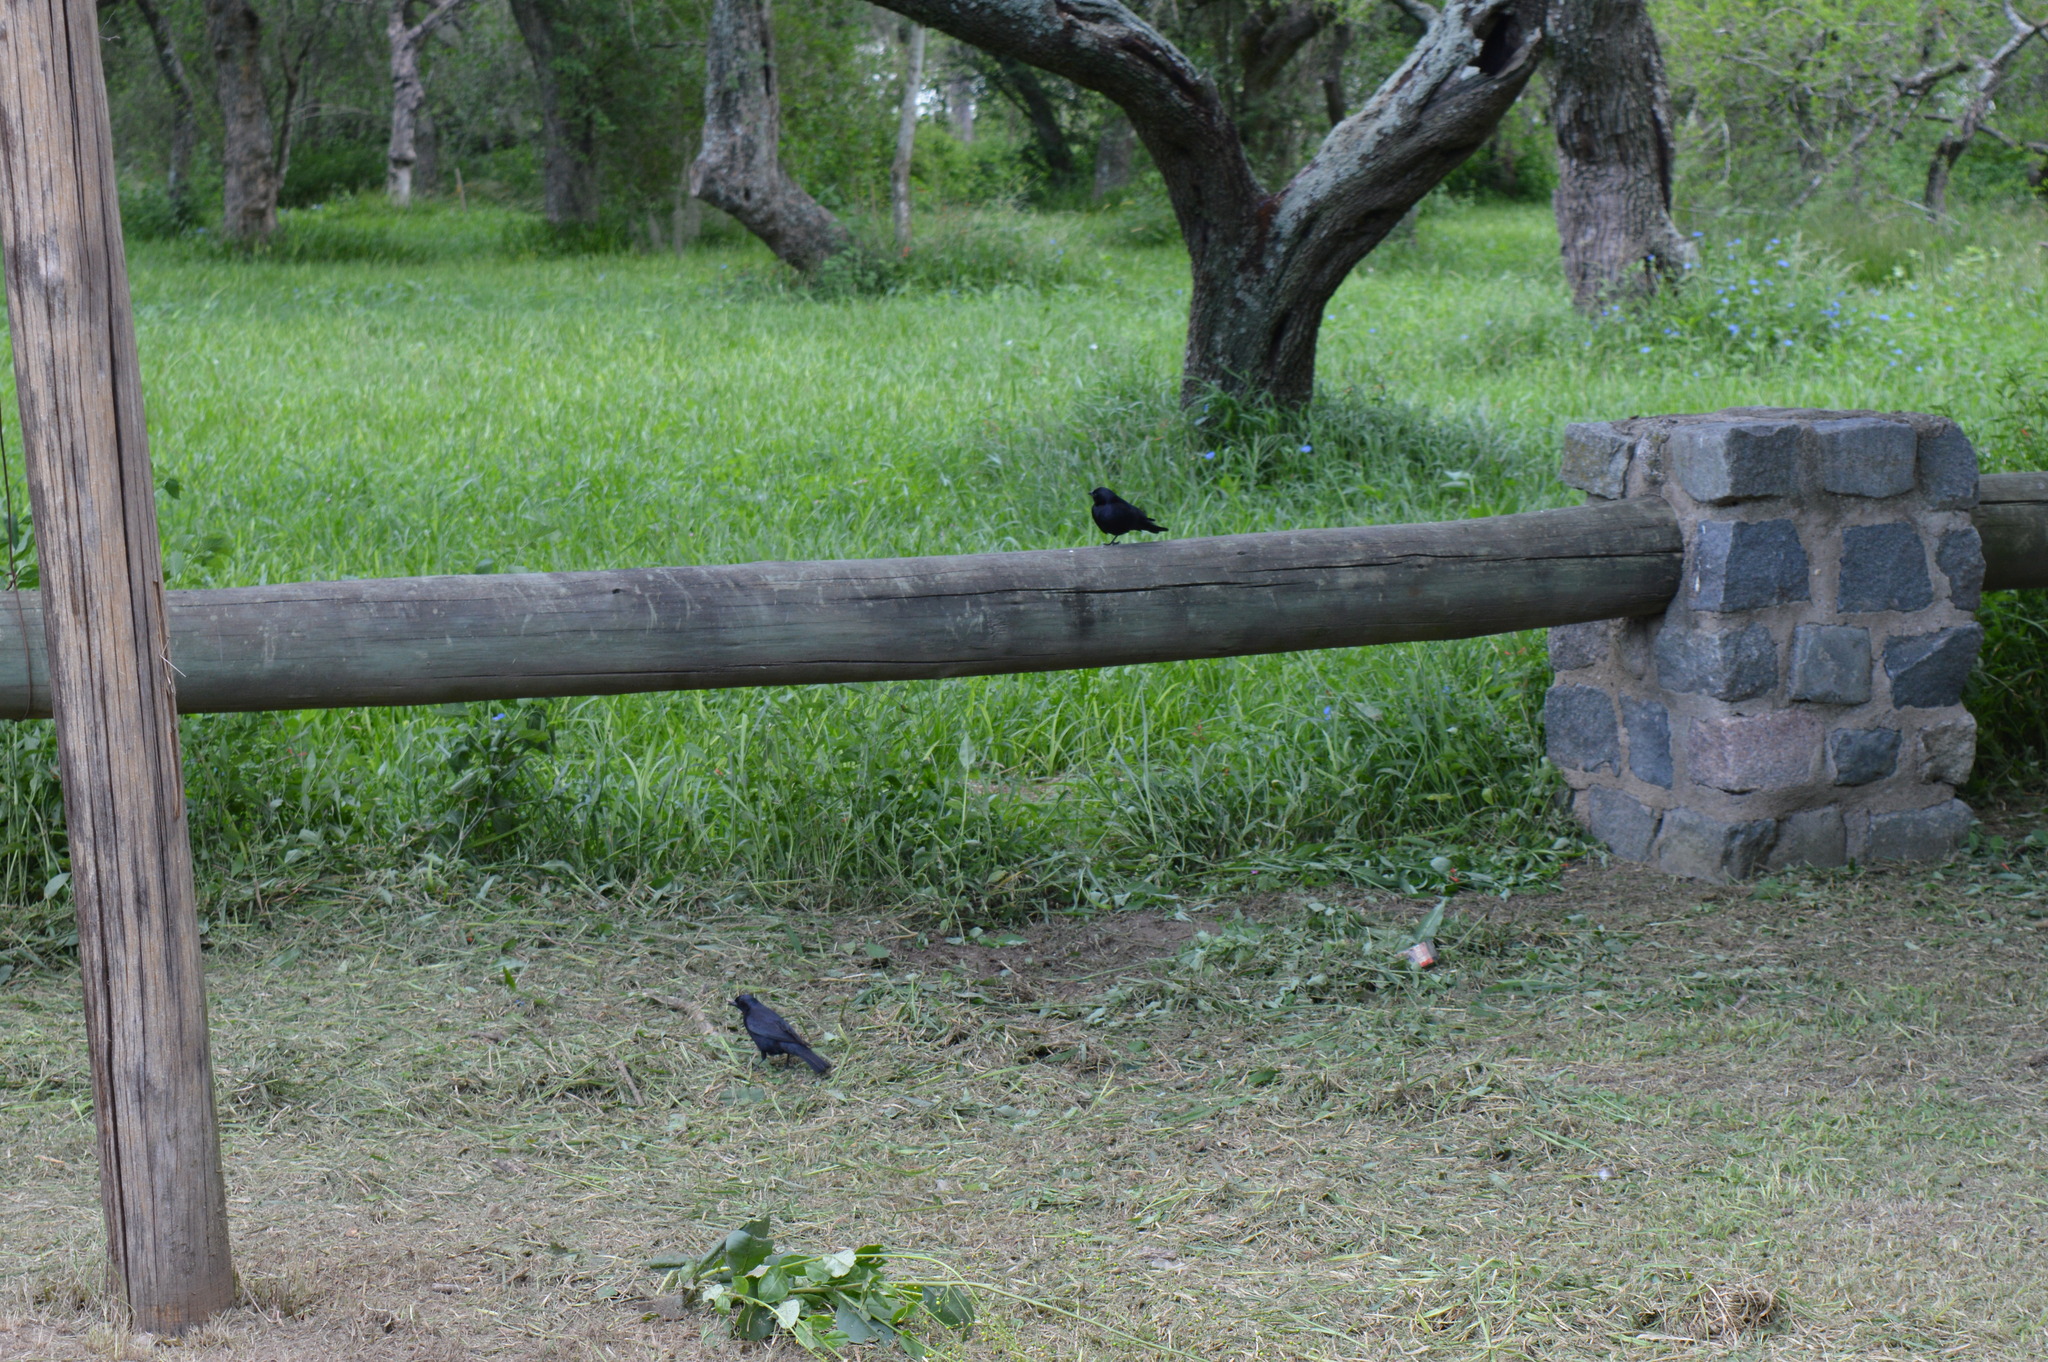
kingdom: Animalia
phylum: Chordata
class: Aves
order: Passeriformes
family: Icteridae
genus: Molothrus
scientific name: Molothrus bonariensis
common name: Shiny cowbird
